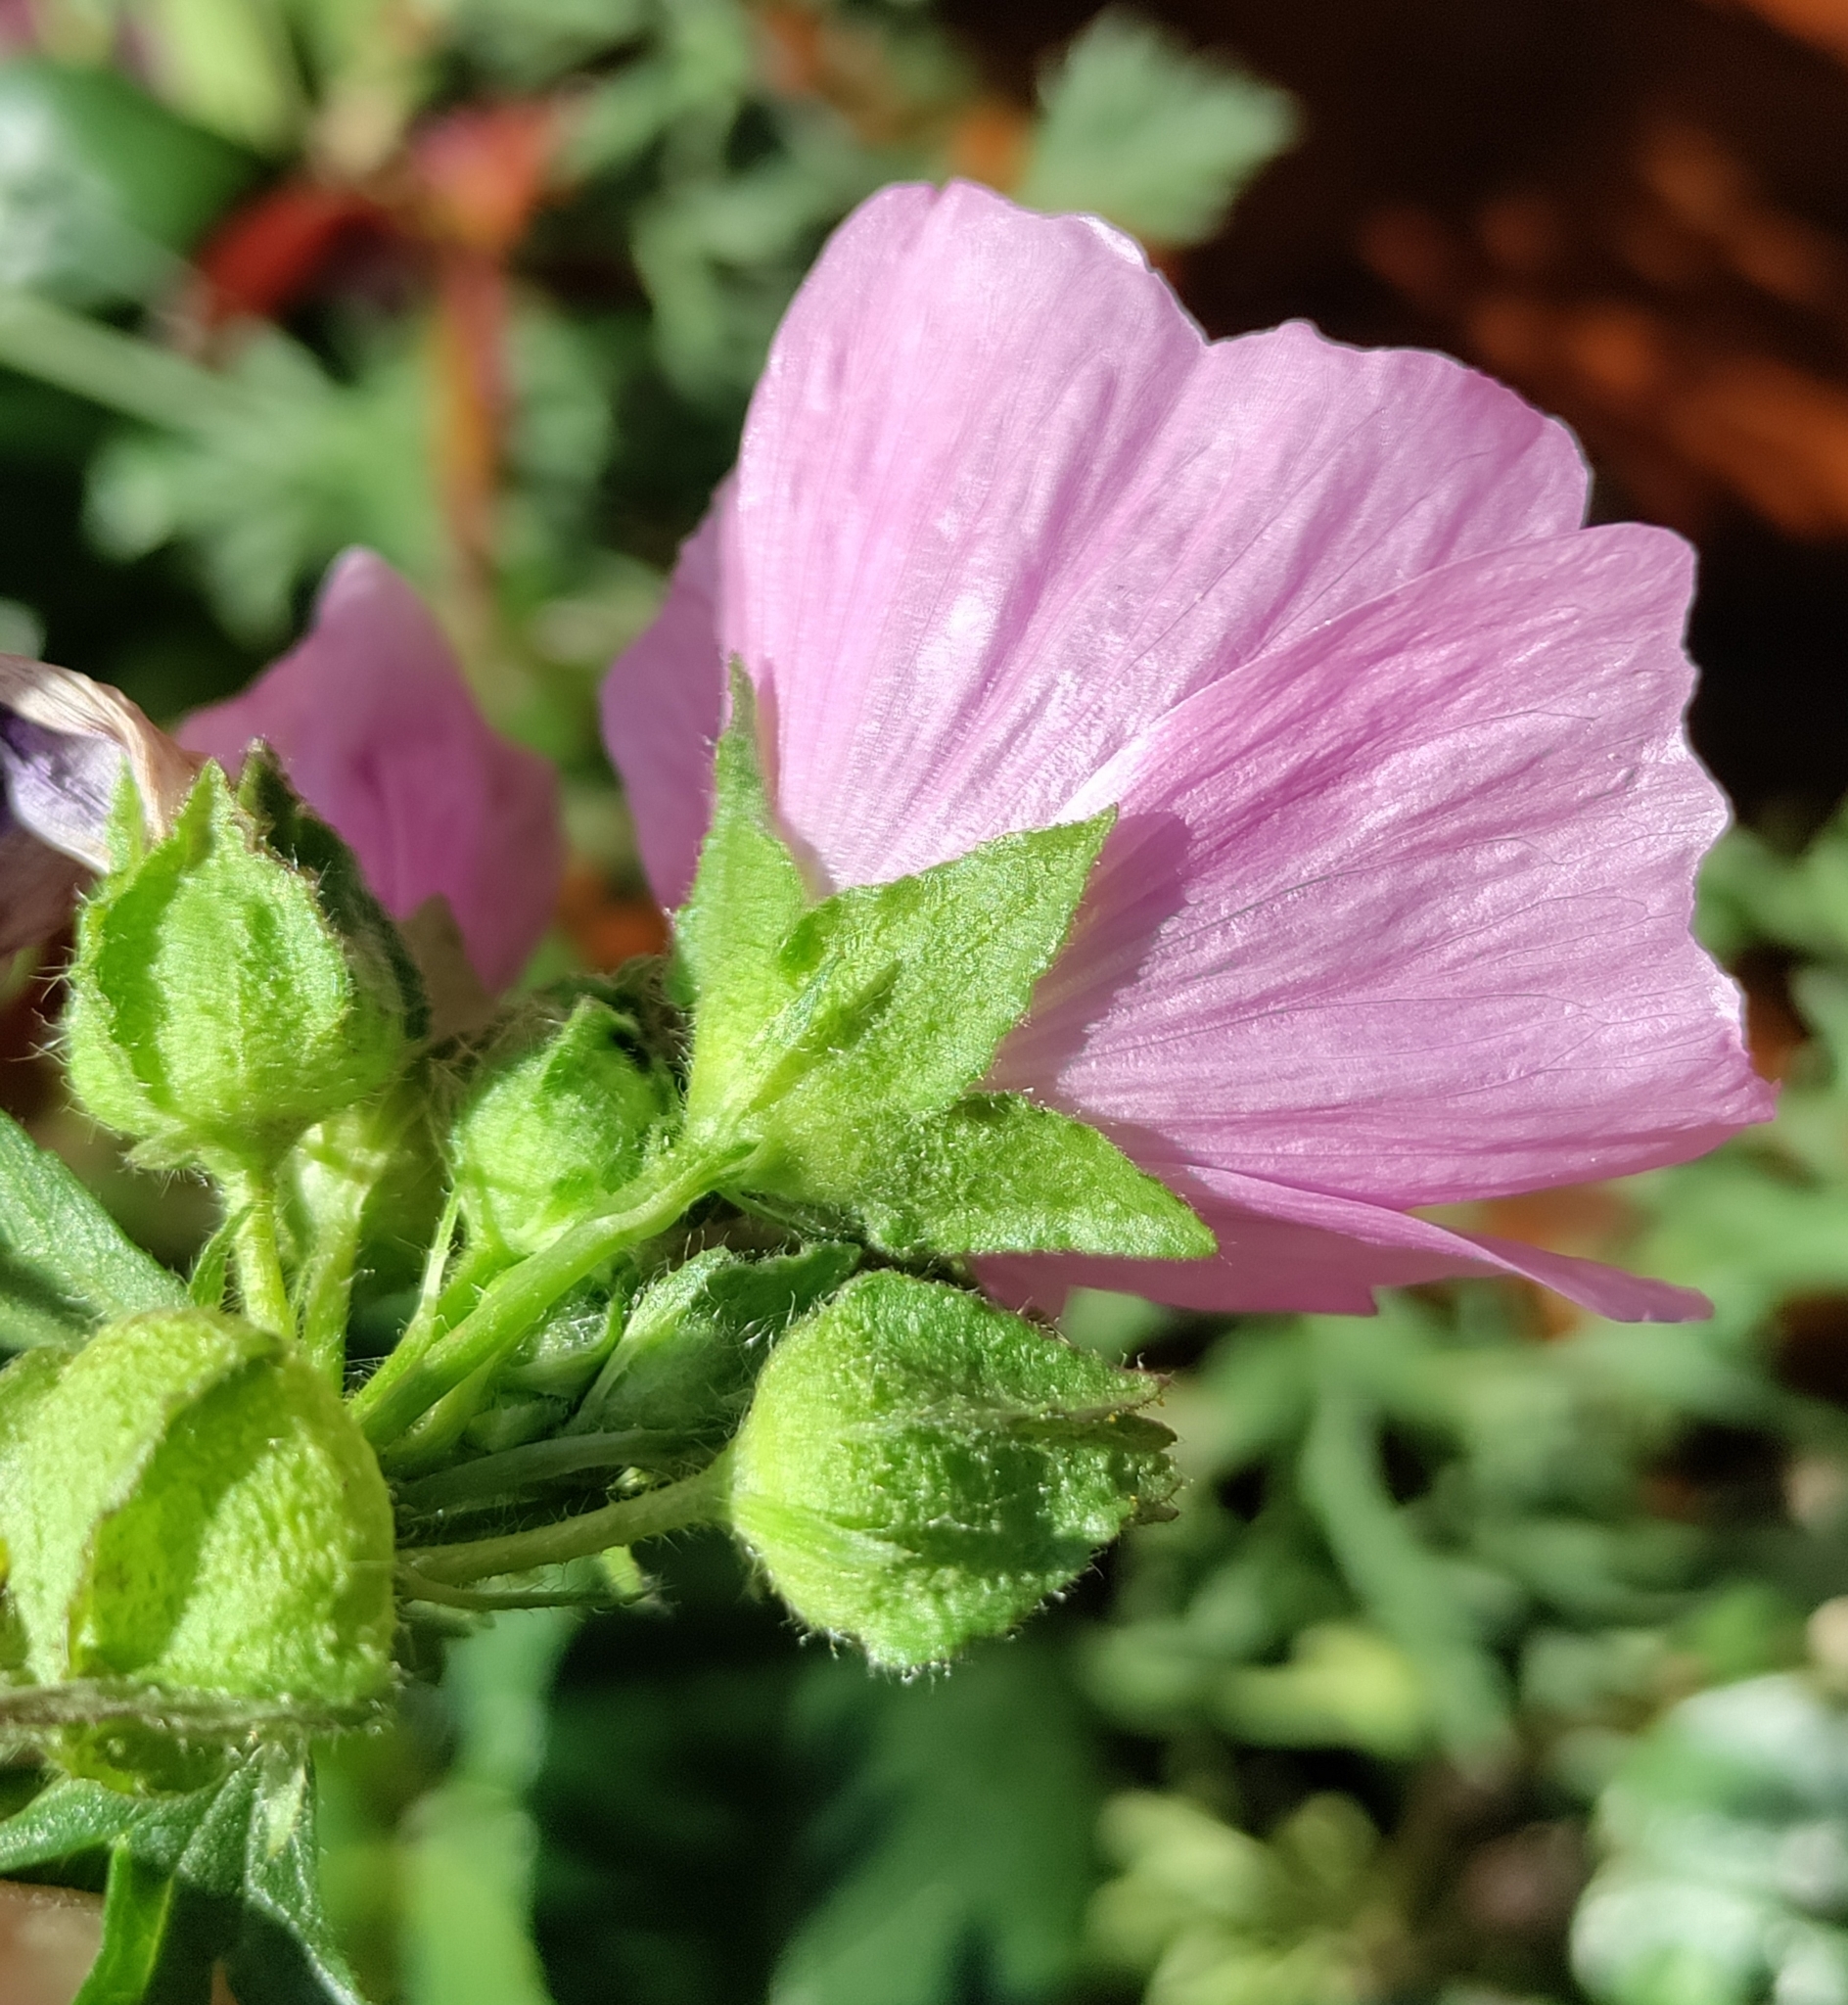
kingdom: Plantae
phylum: Tracheophyta
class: Magnoliopsida
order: Malvales
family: Malvaceae
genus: Malva
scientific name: Malva moschata
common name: Musk mallow
